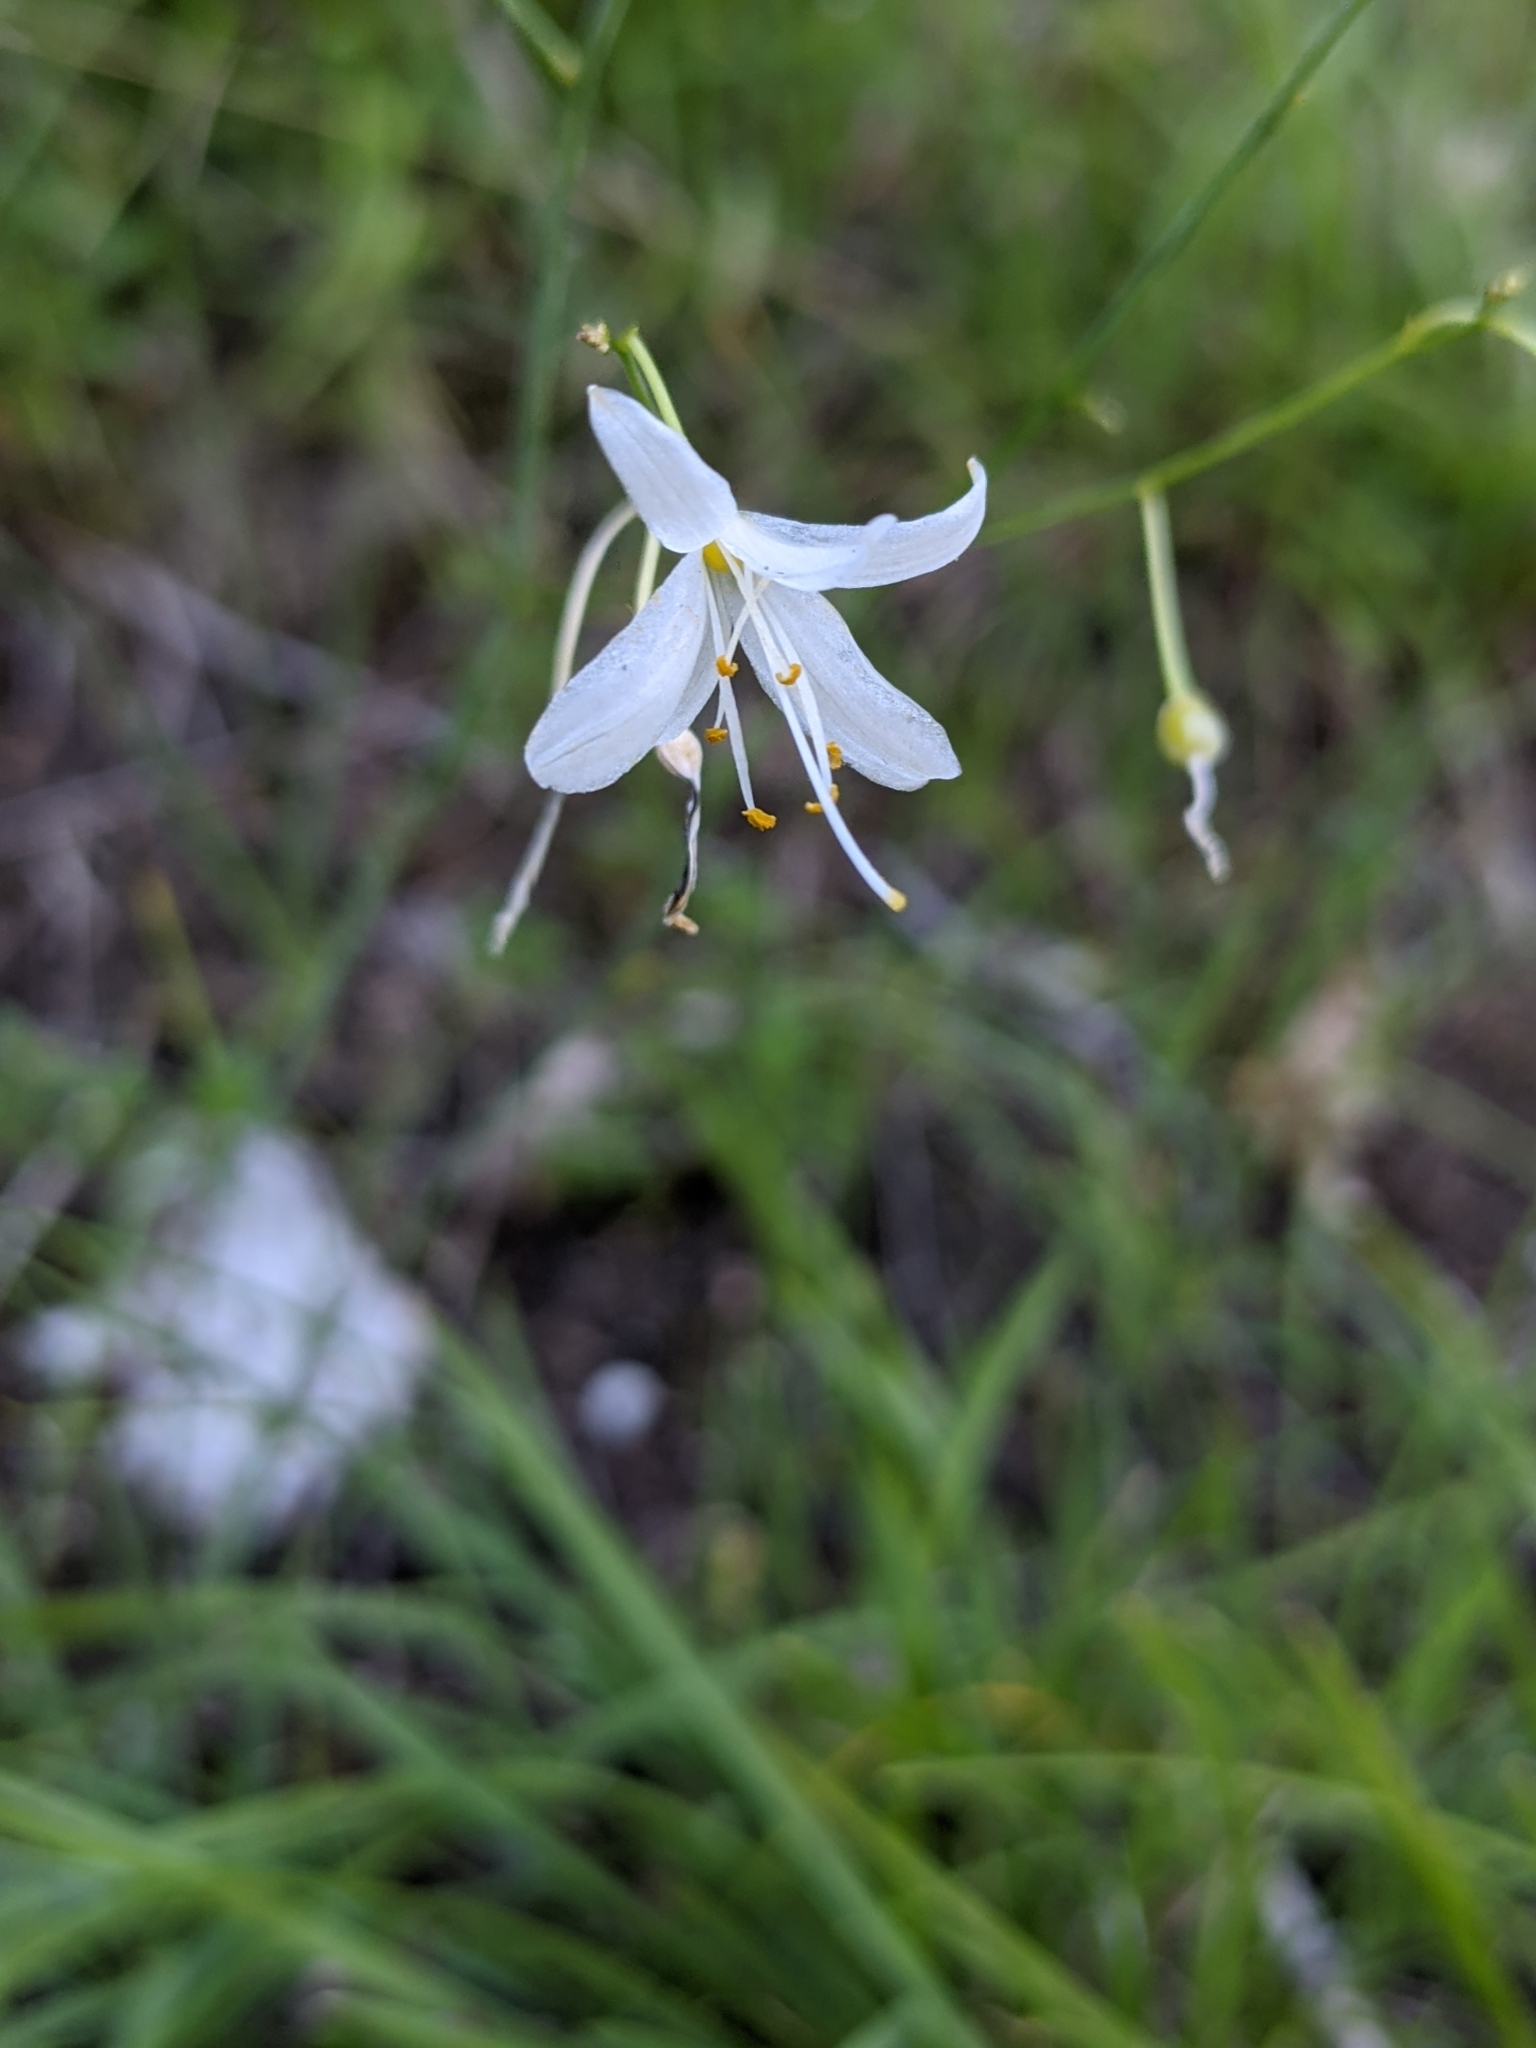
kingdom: Plantae
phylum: Tracheophyta
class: Liliopsida
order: Asparagales
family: Asparagaceae
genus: Anthericum
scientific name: Anthericum ramosum
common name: Branched st. bernard's-lily
